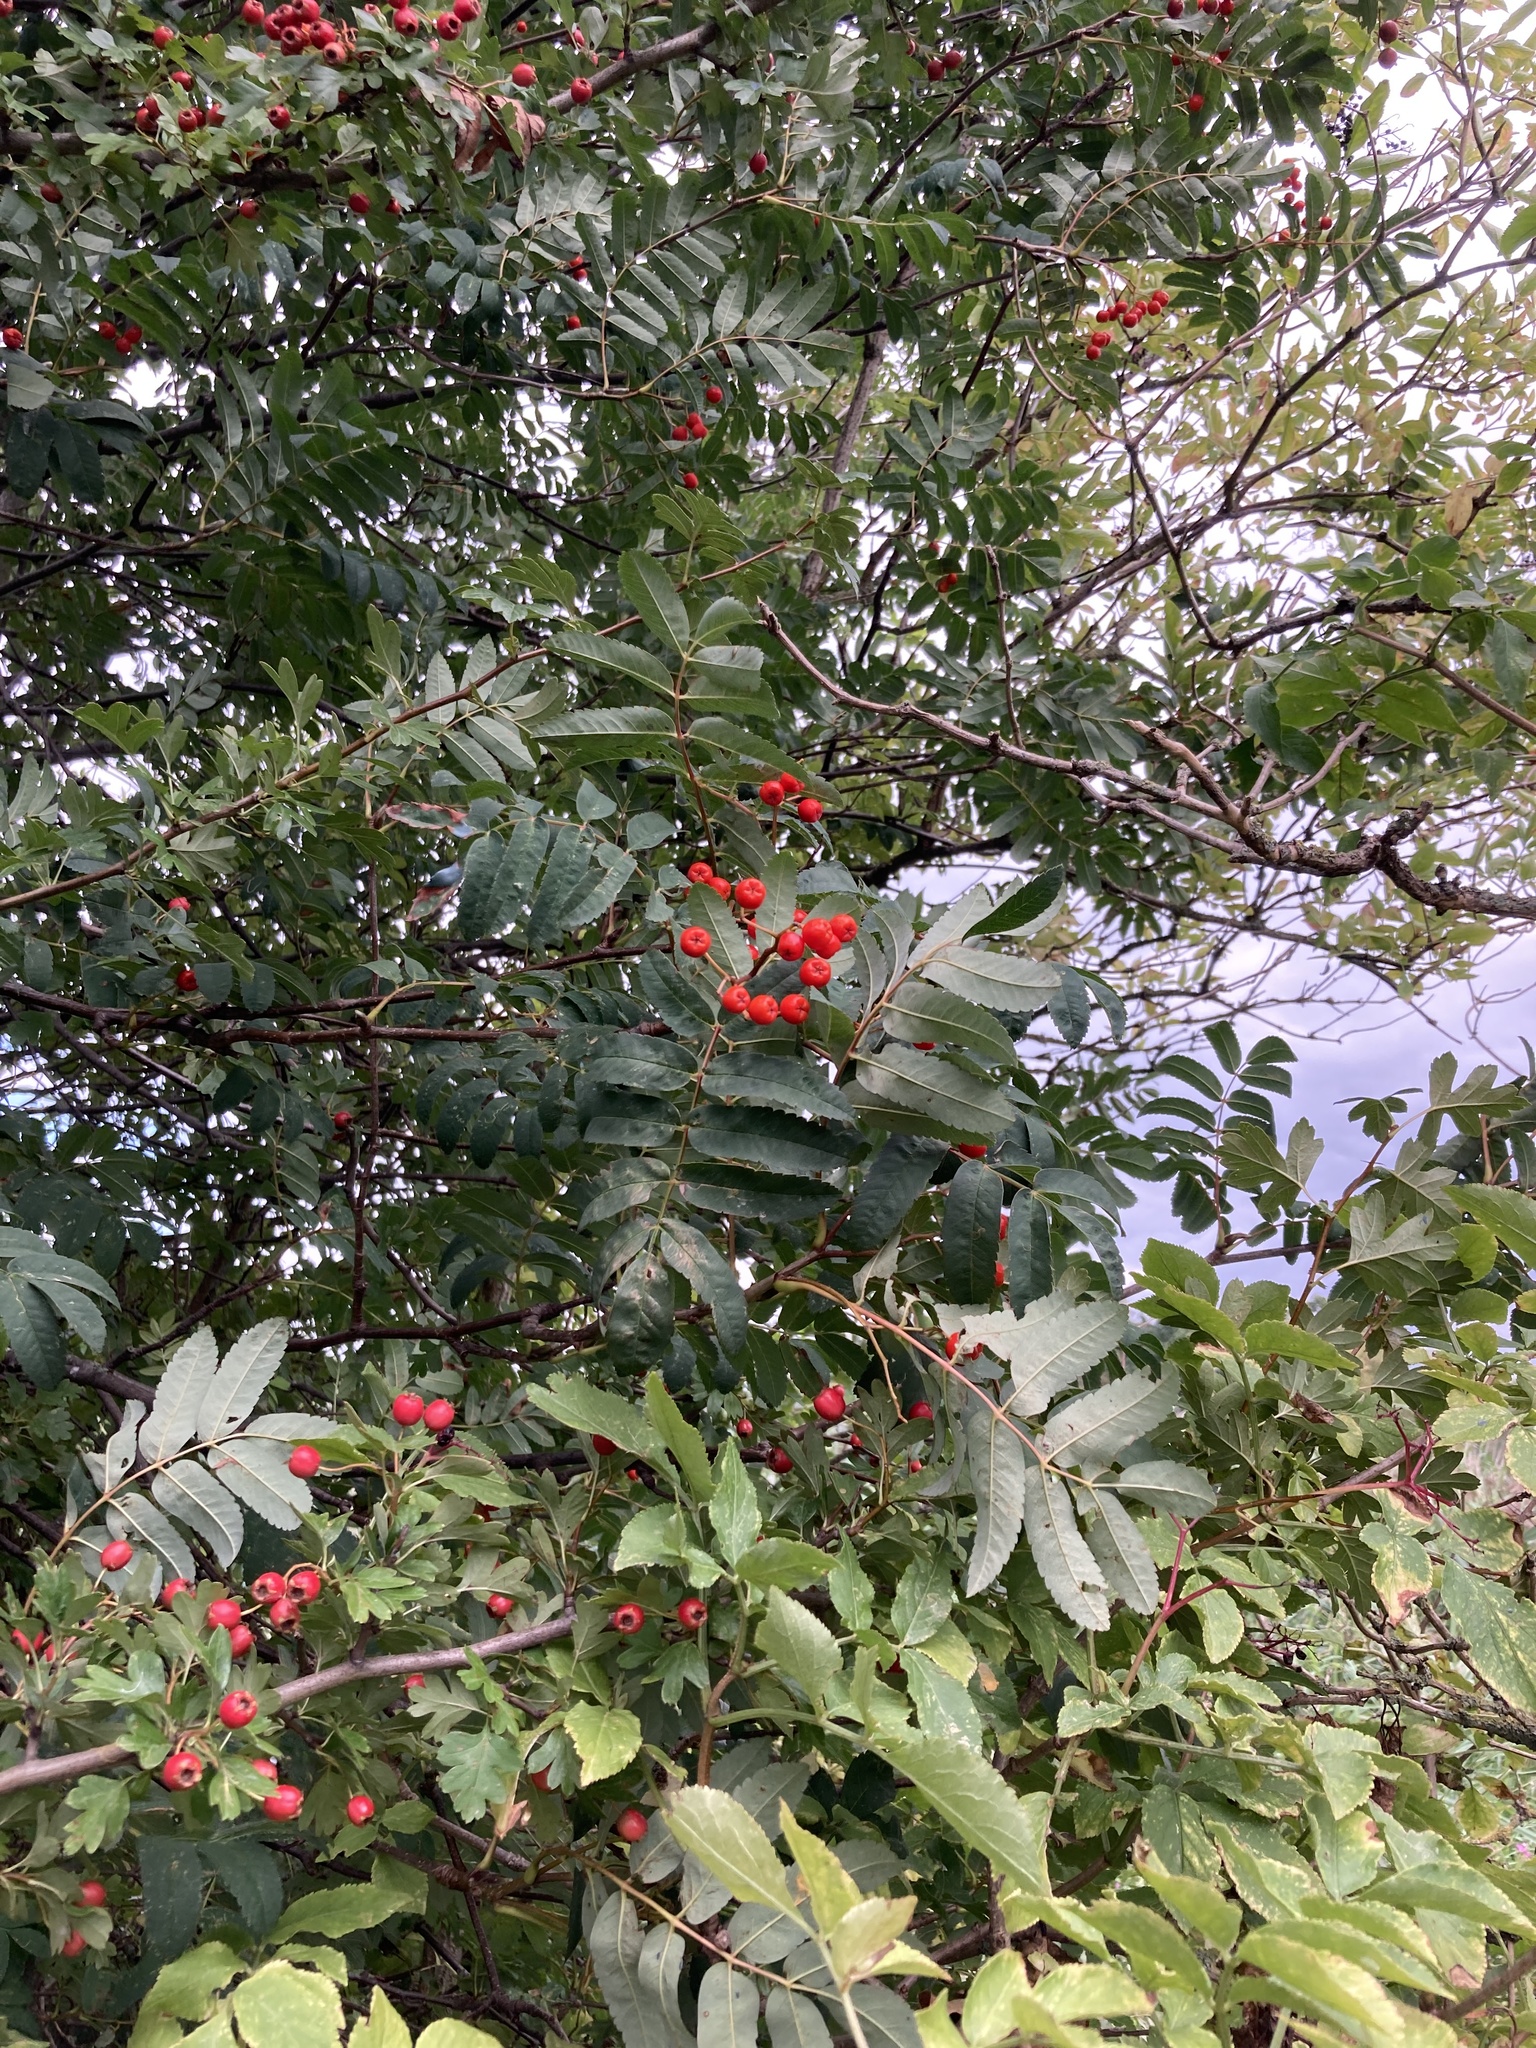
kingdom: Plantae
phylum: Tracheophyta
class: Magnoliopsida
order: Rosales
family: Rosaceae
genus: Sorbus
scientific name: Sorbus aucuparia
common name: Rowan
